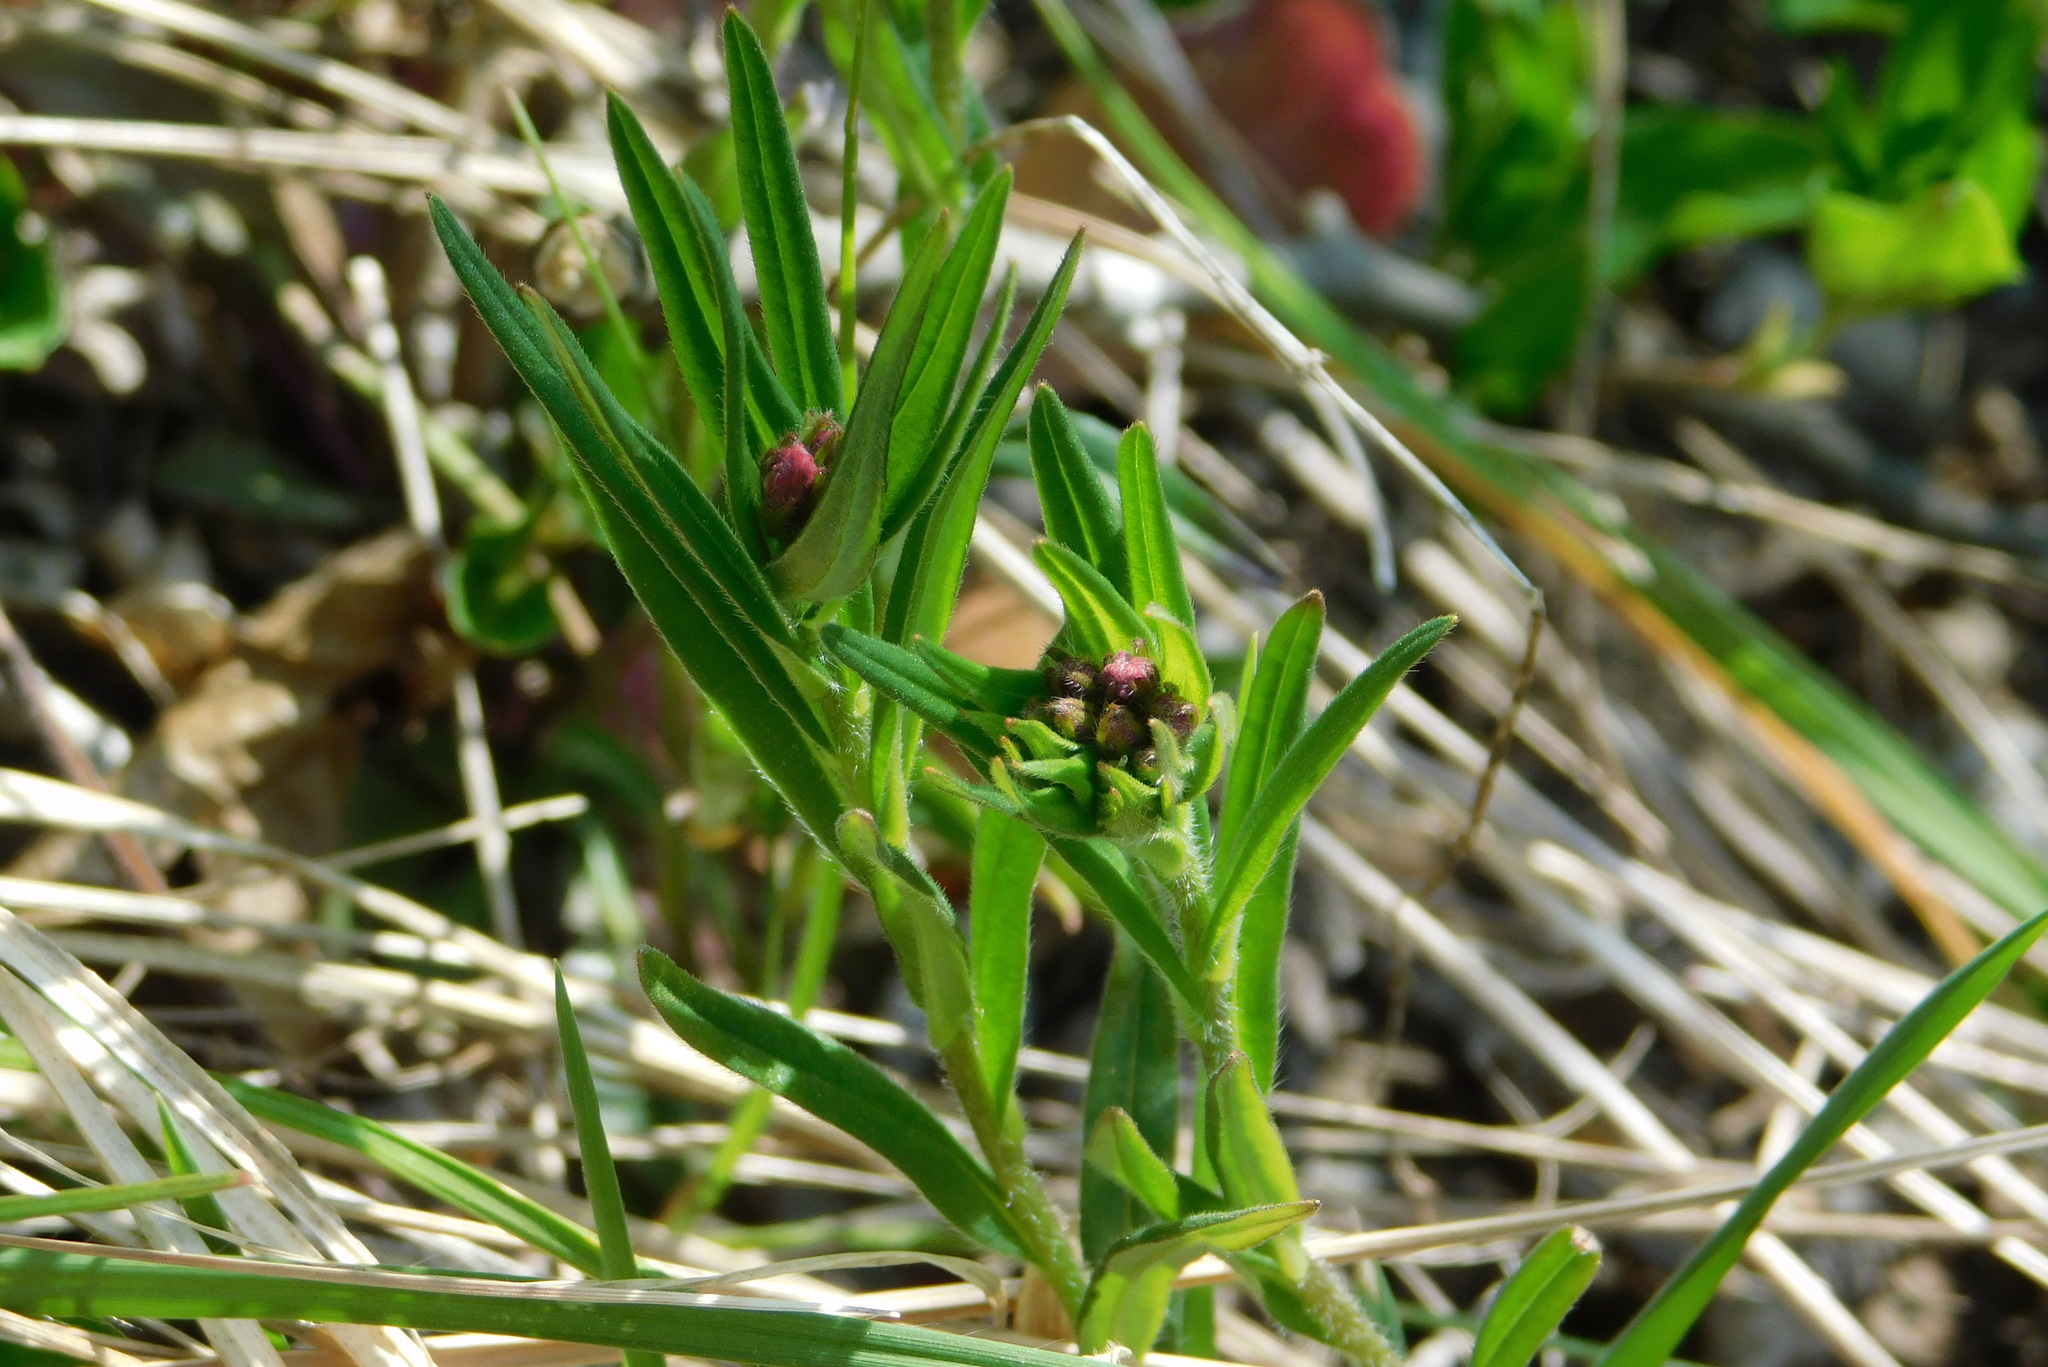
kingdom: Plantae
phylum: Tracheophyta
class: Magnoliopsida
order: Boraginales
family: Boraginaceae
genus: Aegonychon
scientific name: Aegonychon purpurocaeruleum
